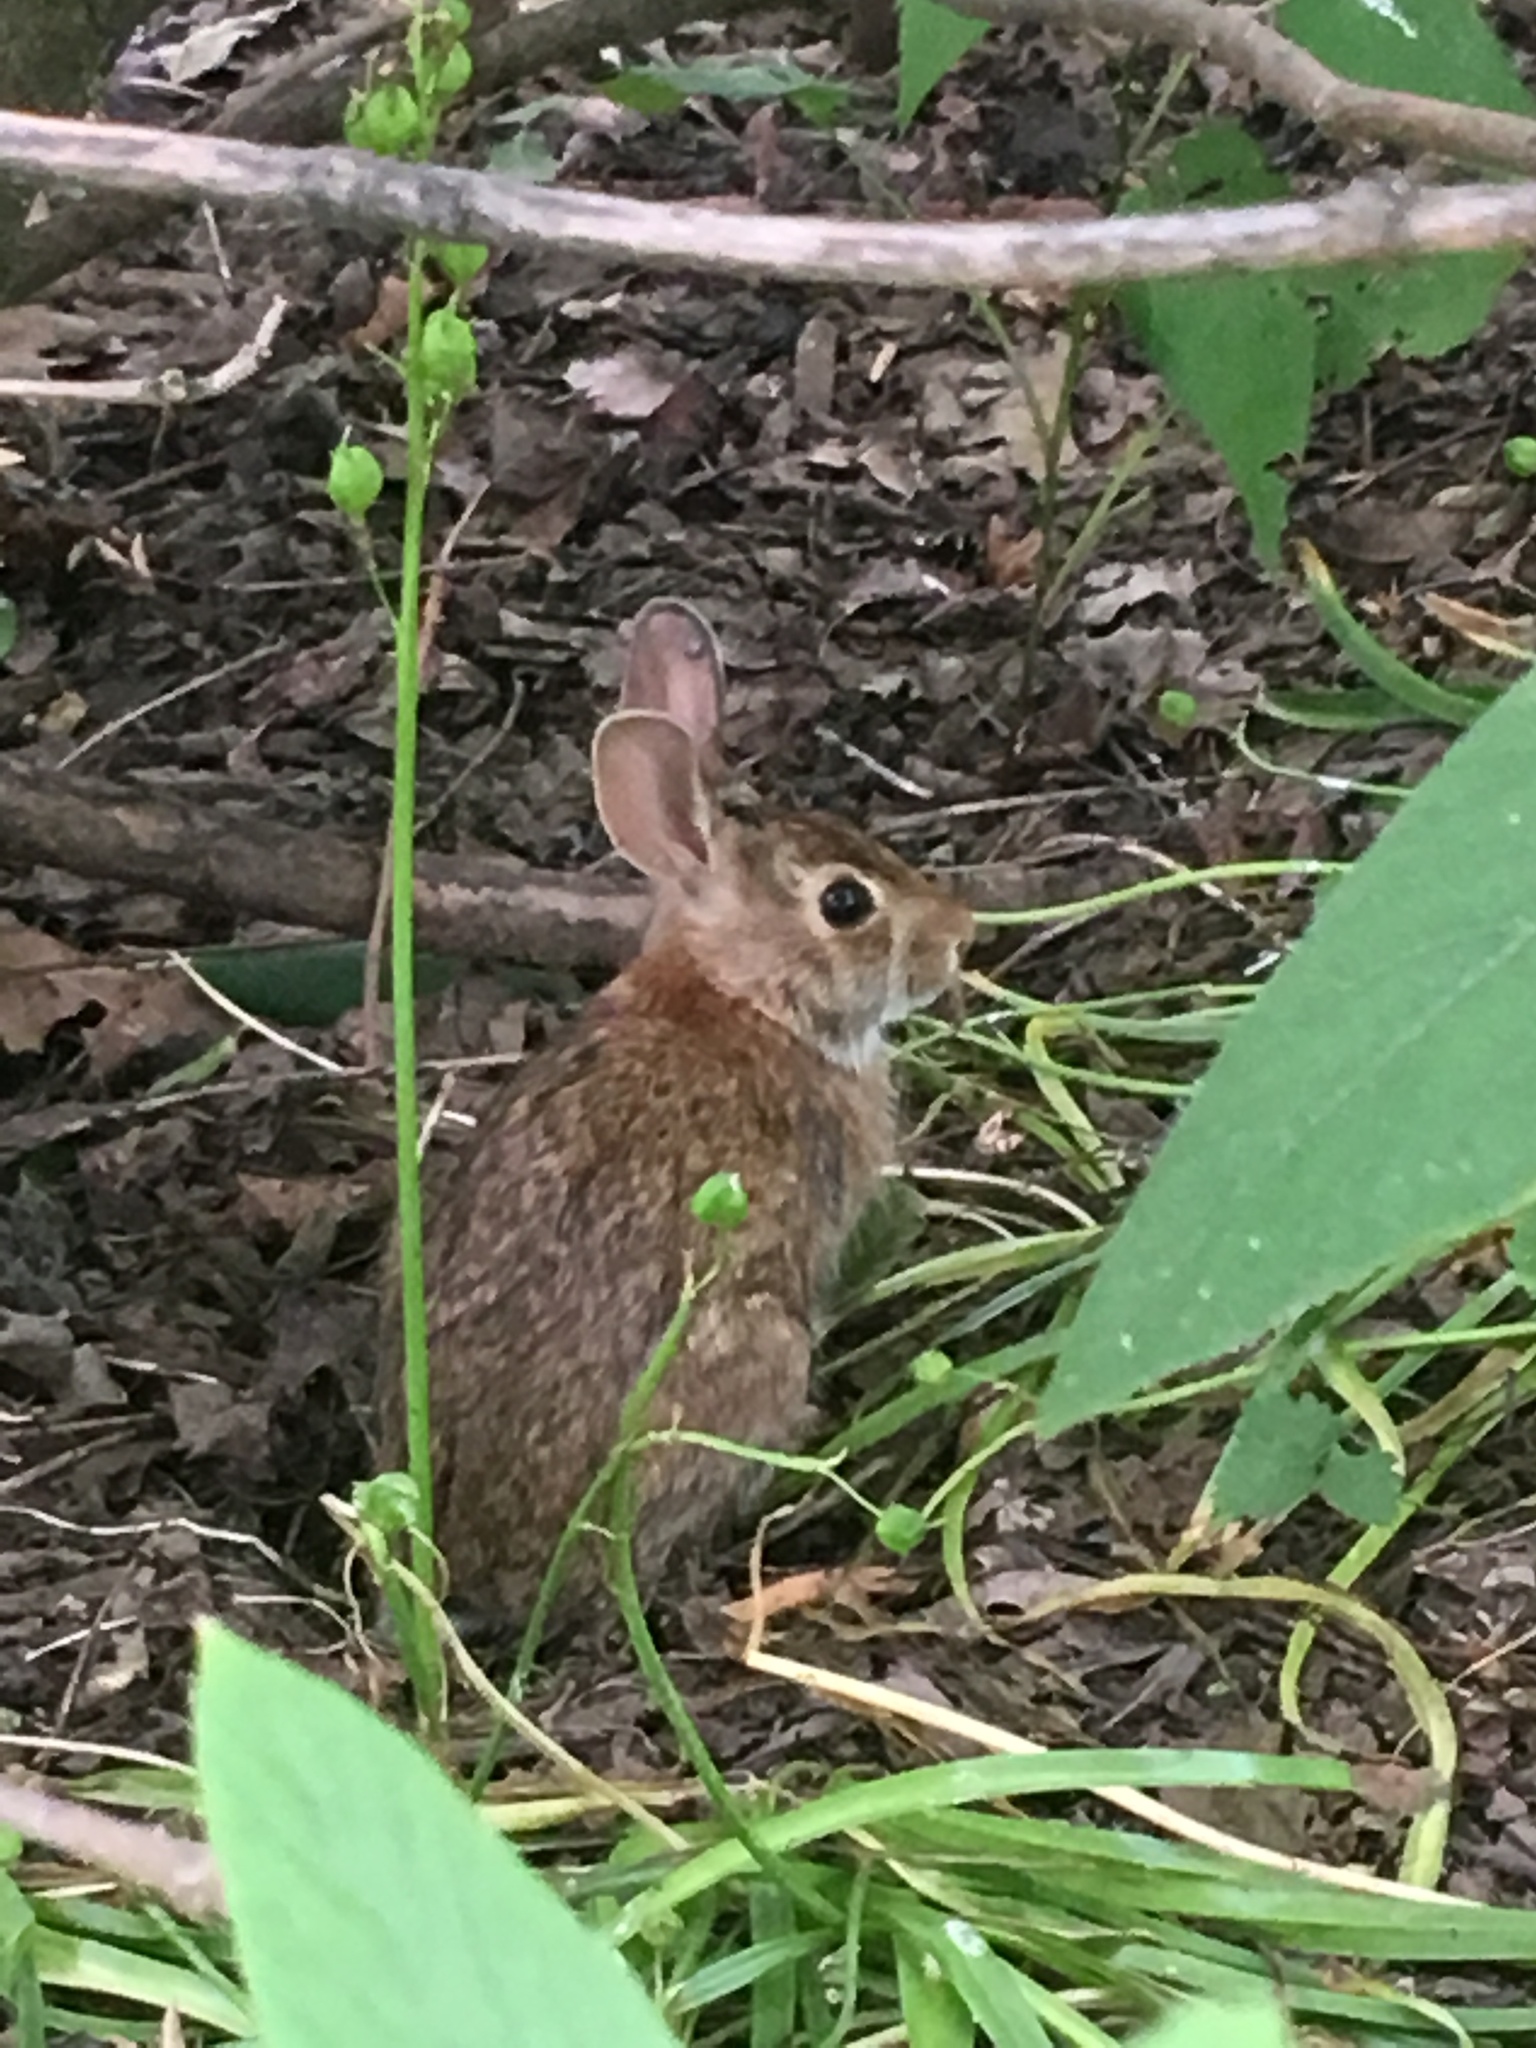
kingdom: Animalia
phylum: Chordata
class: Mammalia
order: Lagomorpha
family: Leporidae
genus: Sylvilagus
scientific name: Sylvilagus floridanus
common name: Eastern cottontail
